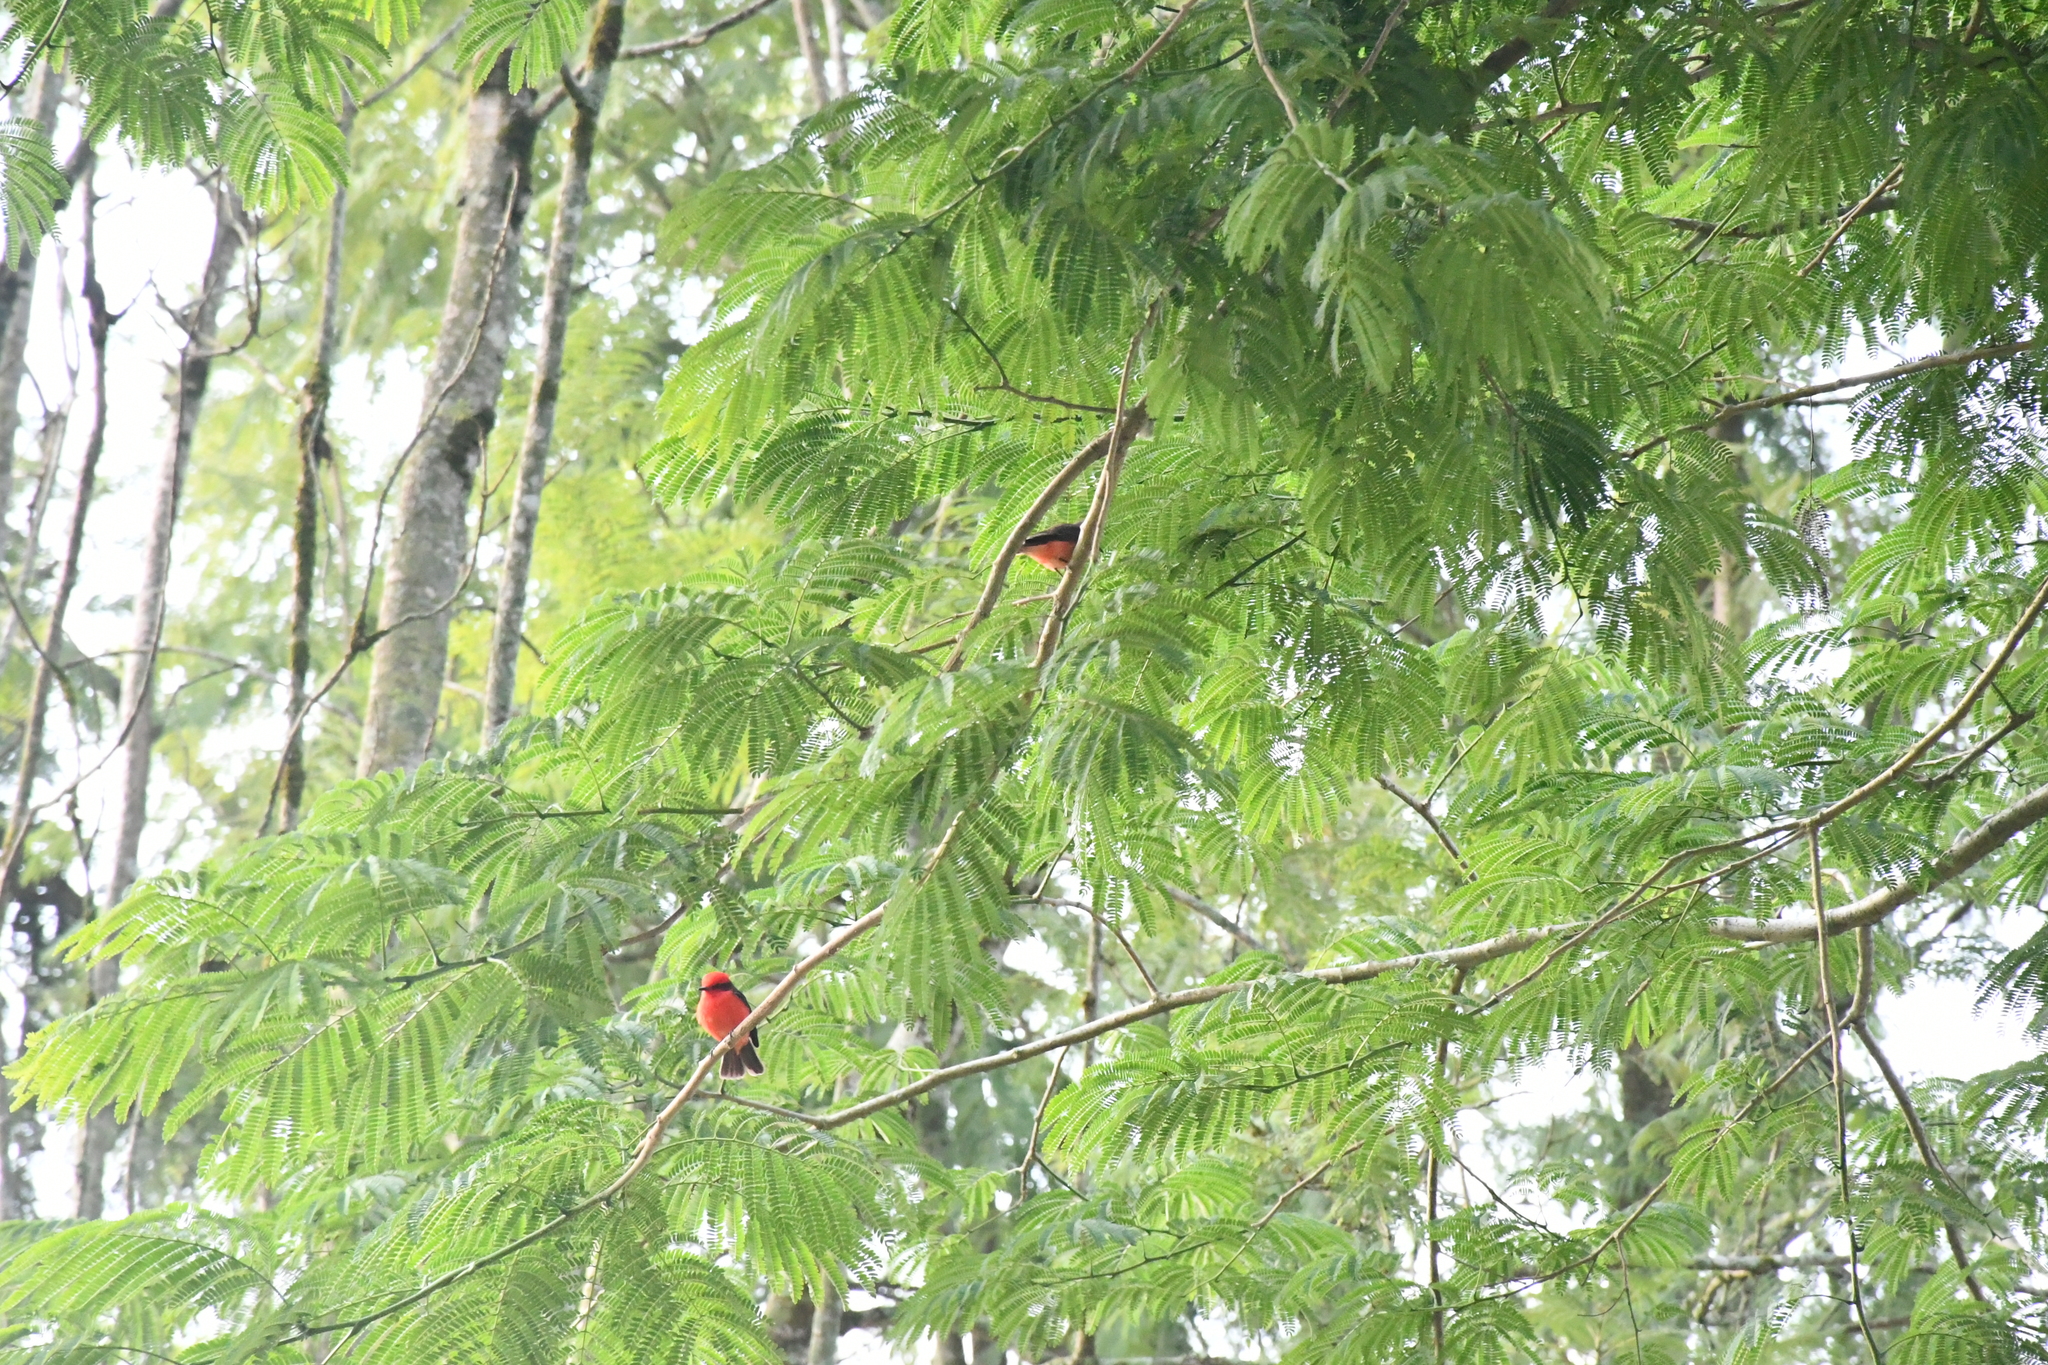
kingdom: Animalia
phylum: Chordata
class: Aves
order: Passeriformes
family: Tyrannidae
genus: Pyrocephalus
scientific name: Pyrocephalus rubinus
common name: Vermilion flycatcher
